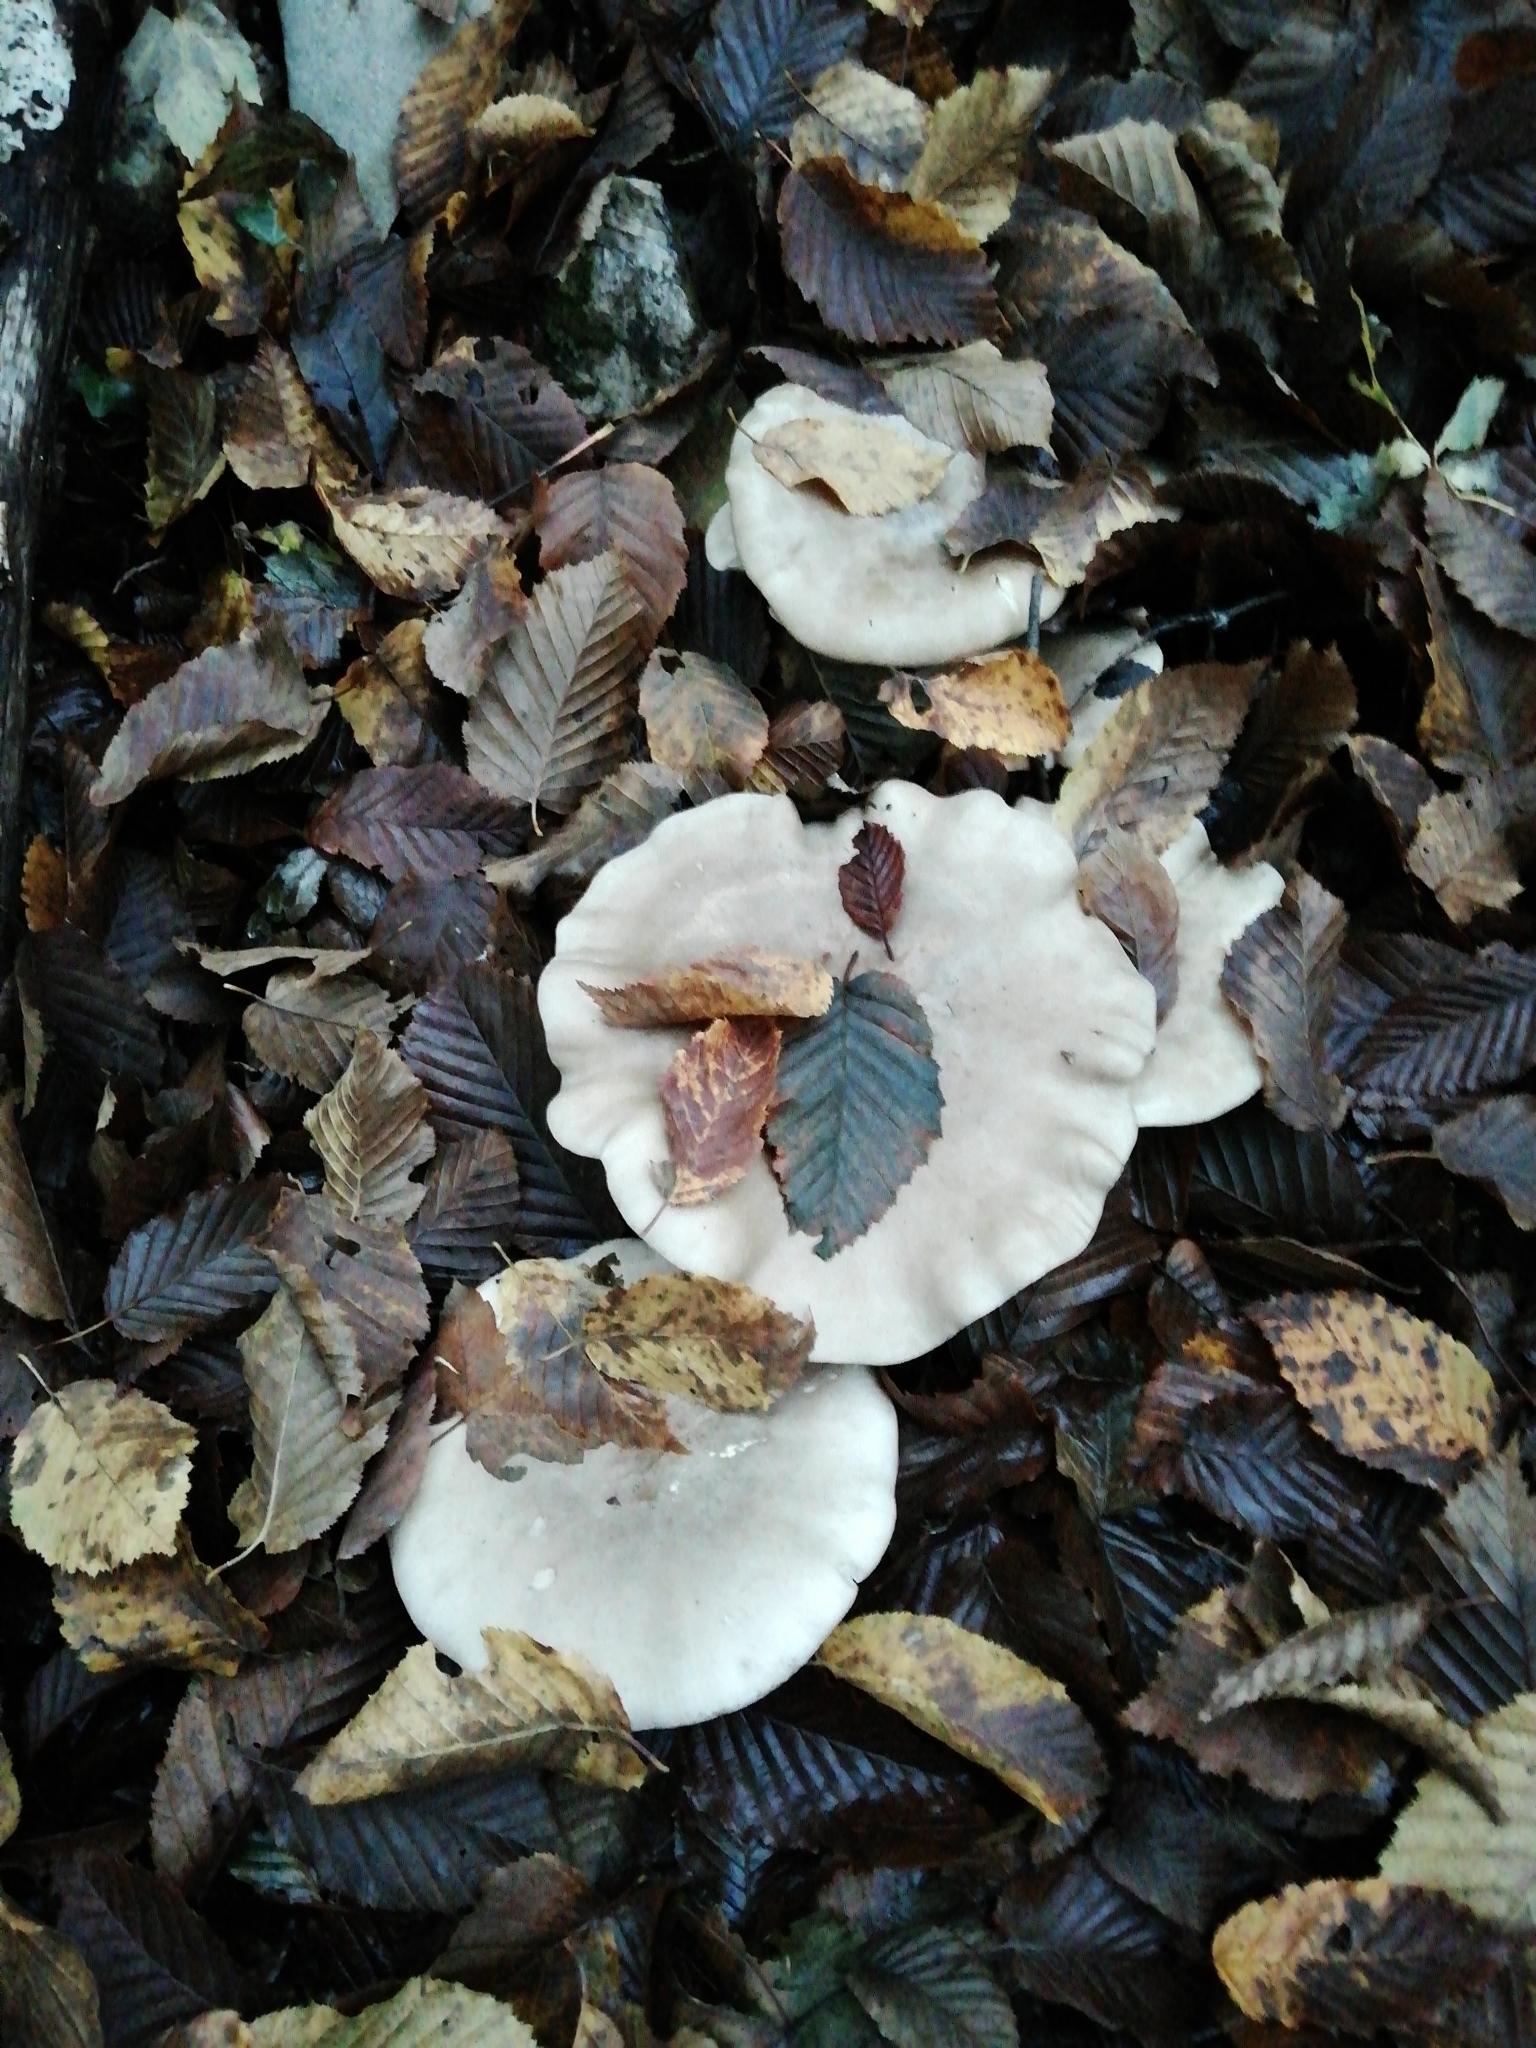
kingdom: Fungi
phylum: Basidiomycota
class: Agaricomycetes
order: Agaricales
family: Tricholomataceae
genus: Clitocybe
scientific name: Clitocybe nebularis
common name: Clouded agaric
